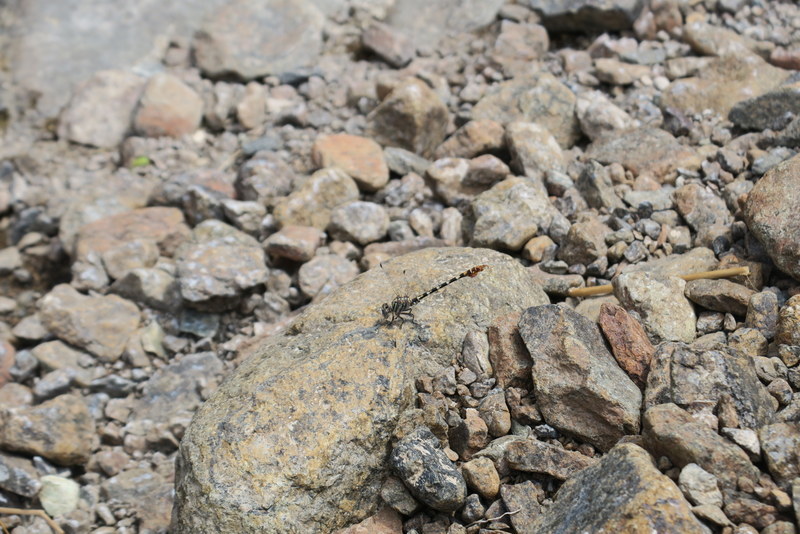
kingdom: Animalia
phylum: Arthropoda
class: Insecta
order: Odonata
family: Gomphidae
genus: Paragomphus
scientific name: Paragomphus sinaiticus
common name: Sinai hooktail
